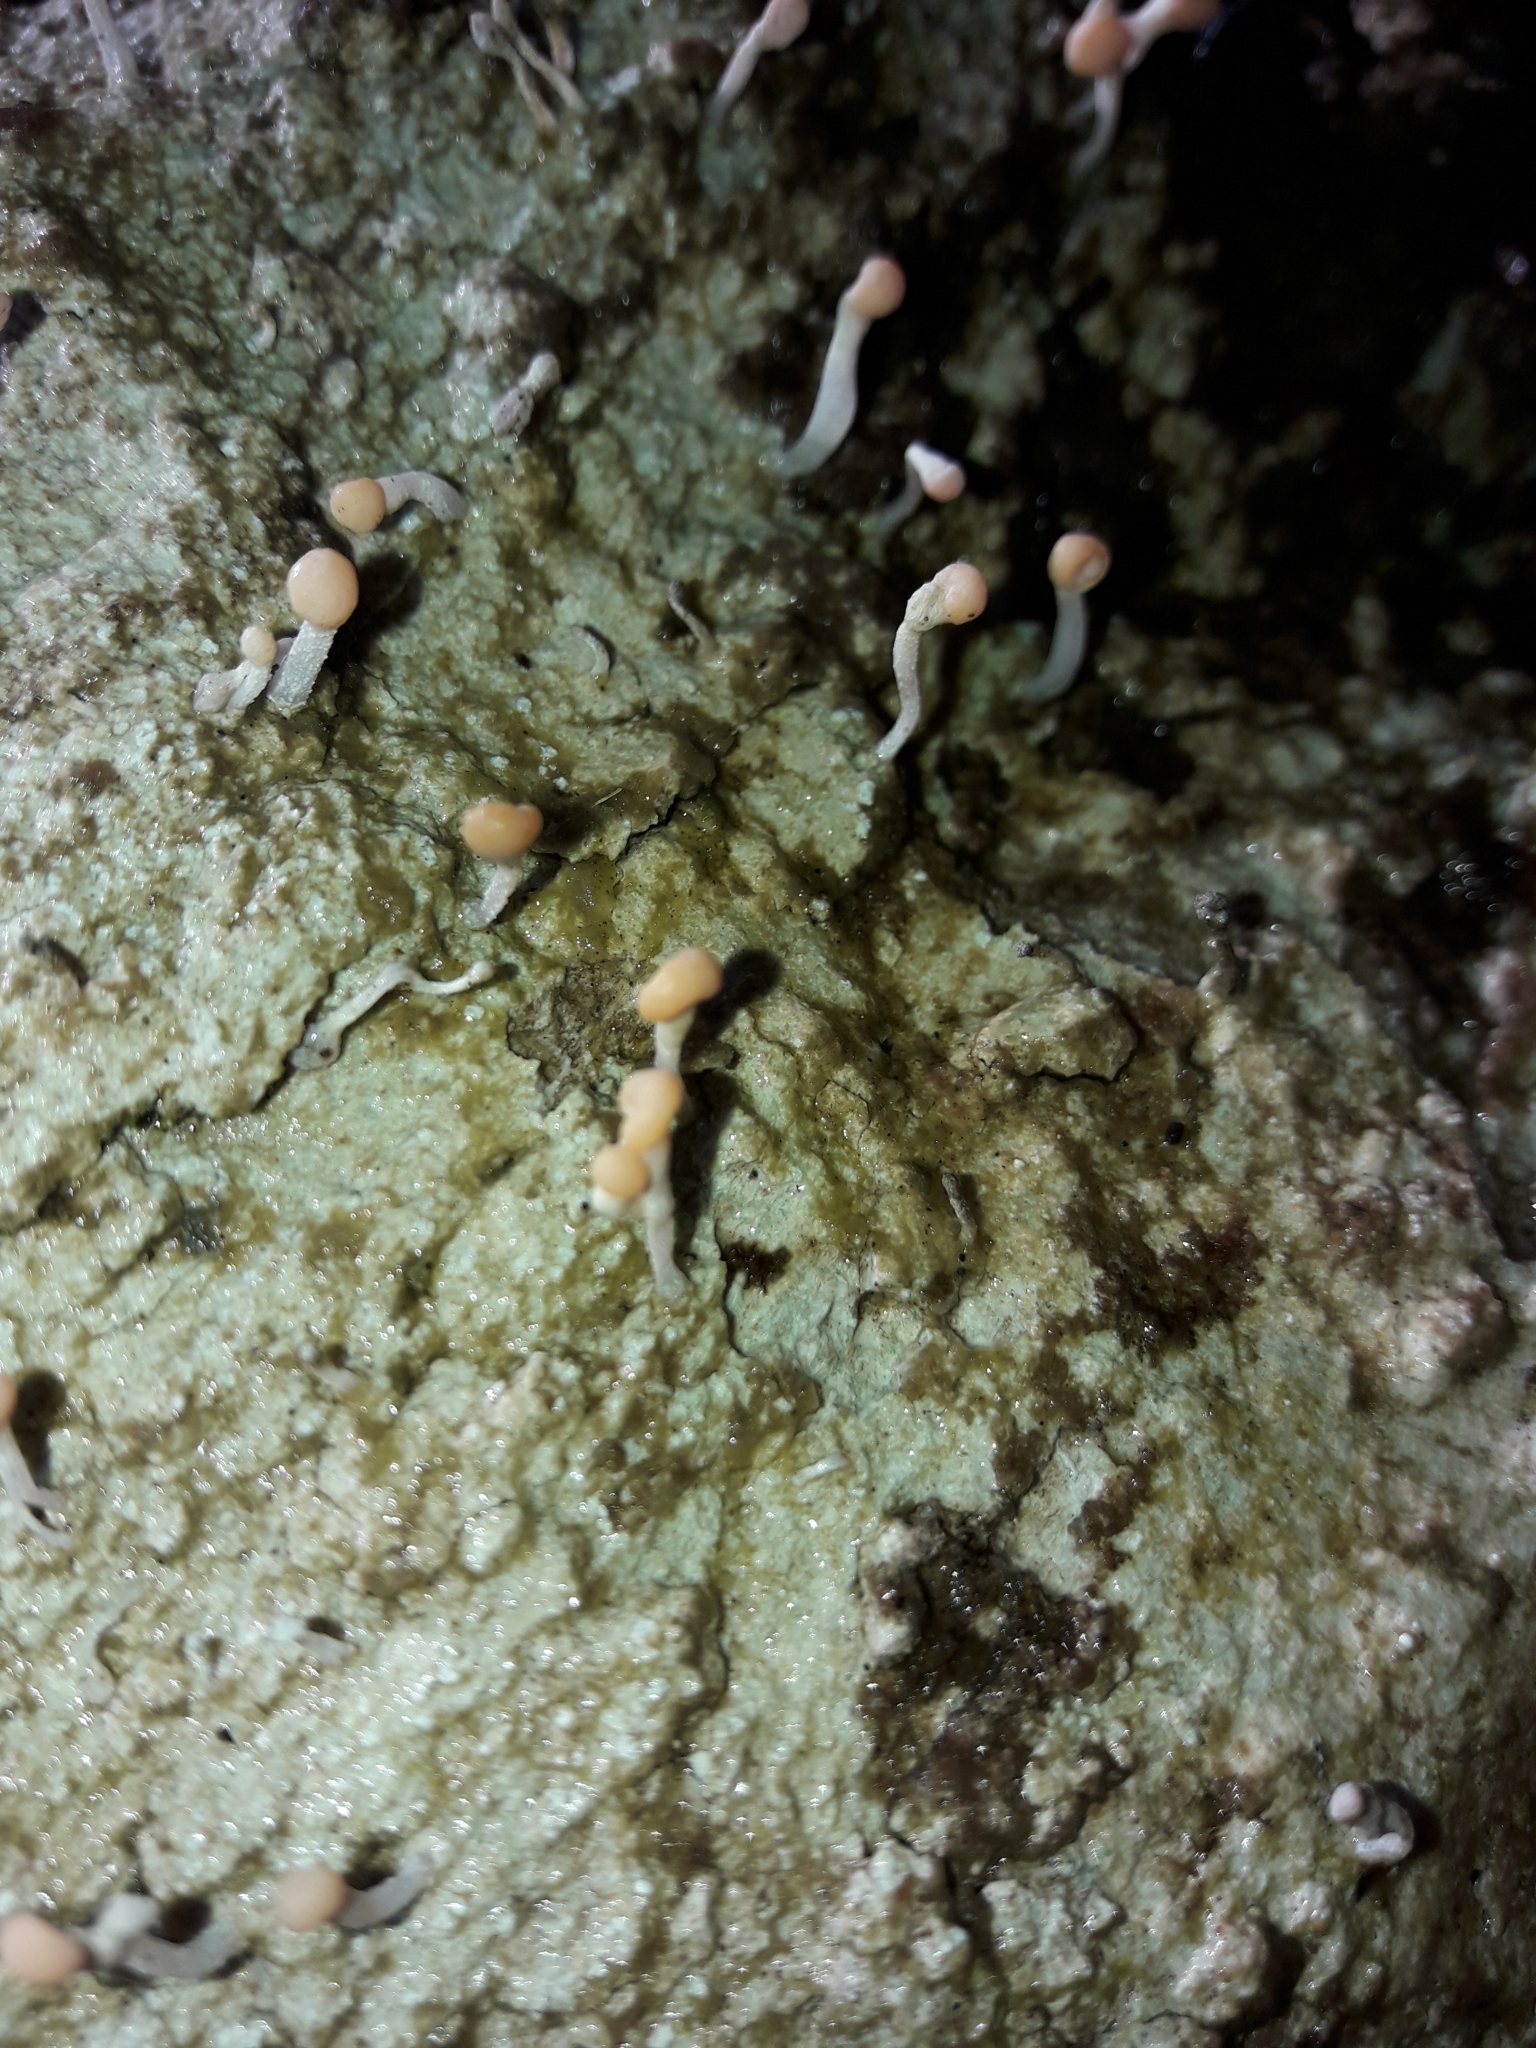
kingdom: Fungi
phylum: Ascomycota
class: Lecanoromycetes
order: Pertusariales
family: Icmadophilaceae
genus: Dibaeis
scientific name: Dibaeis arcuata
